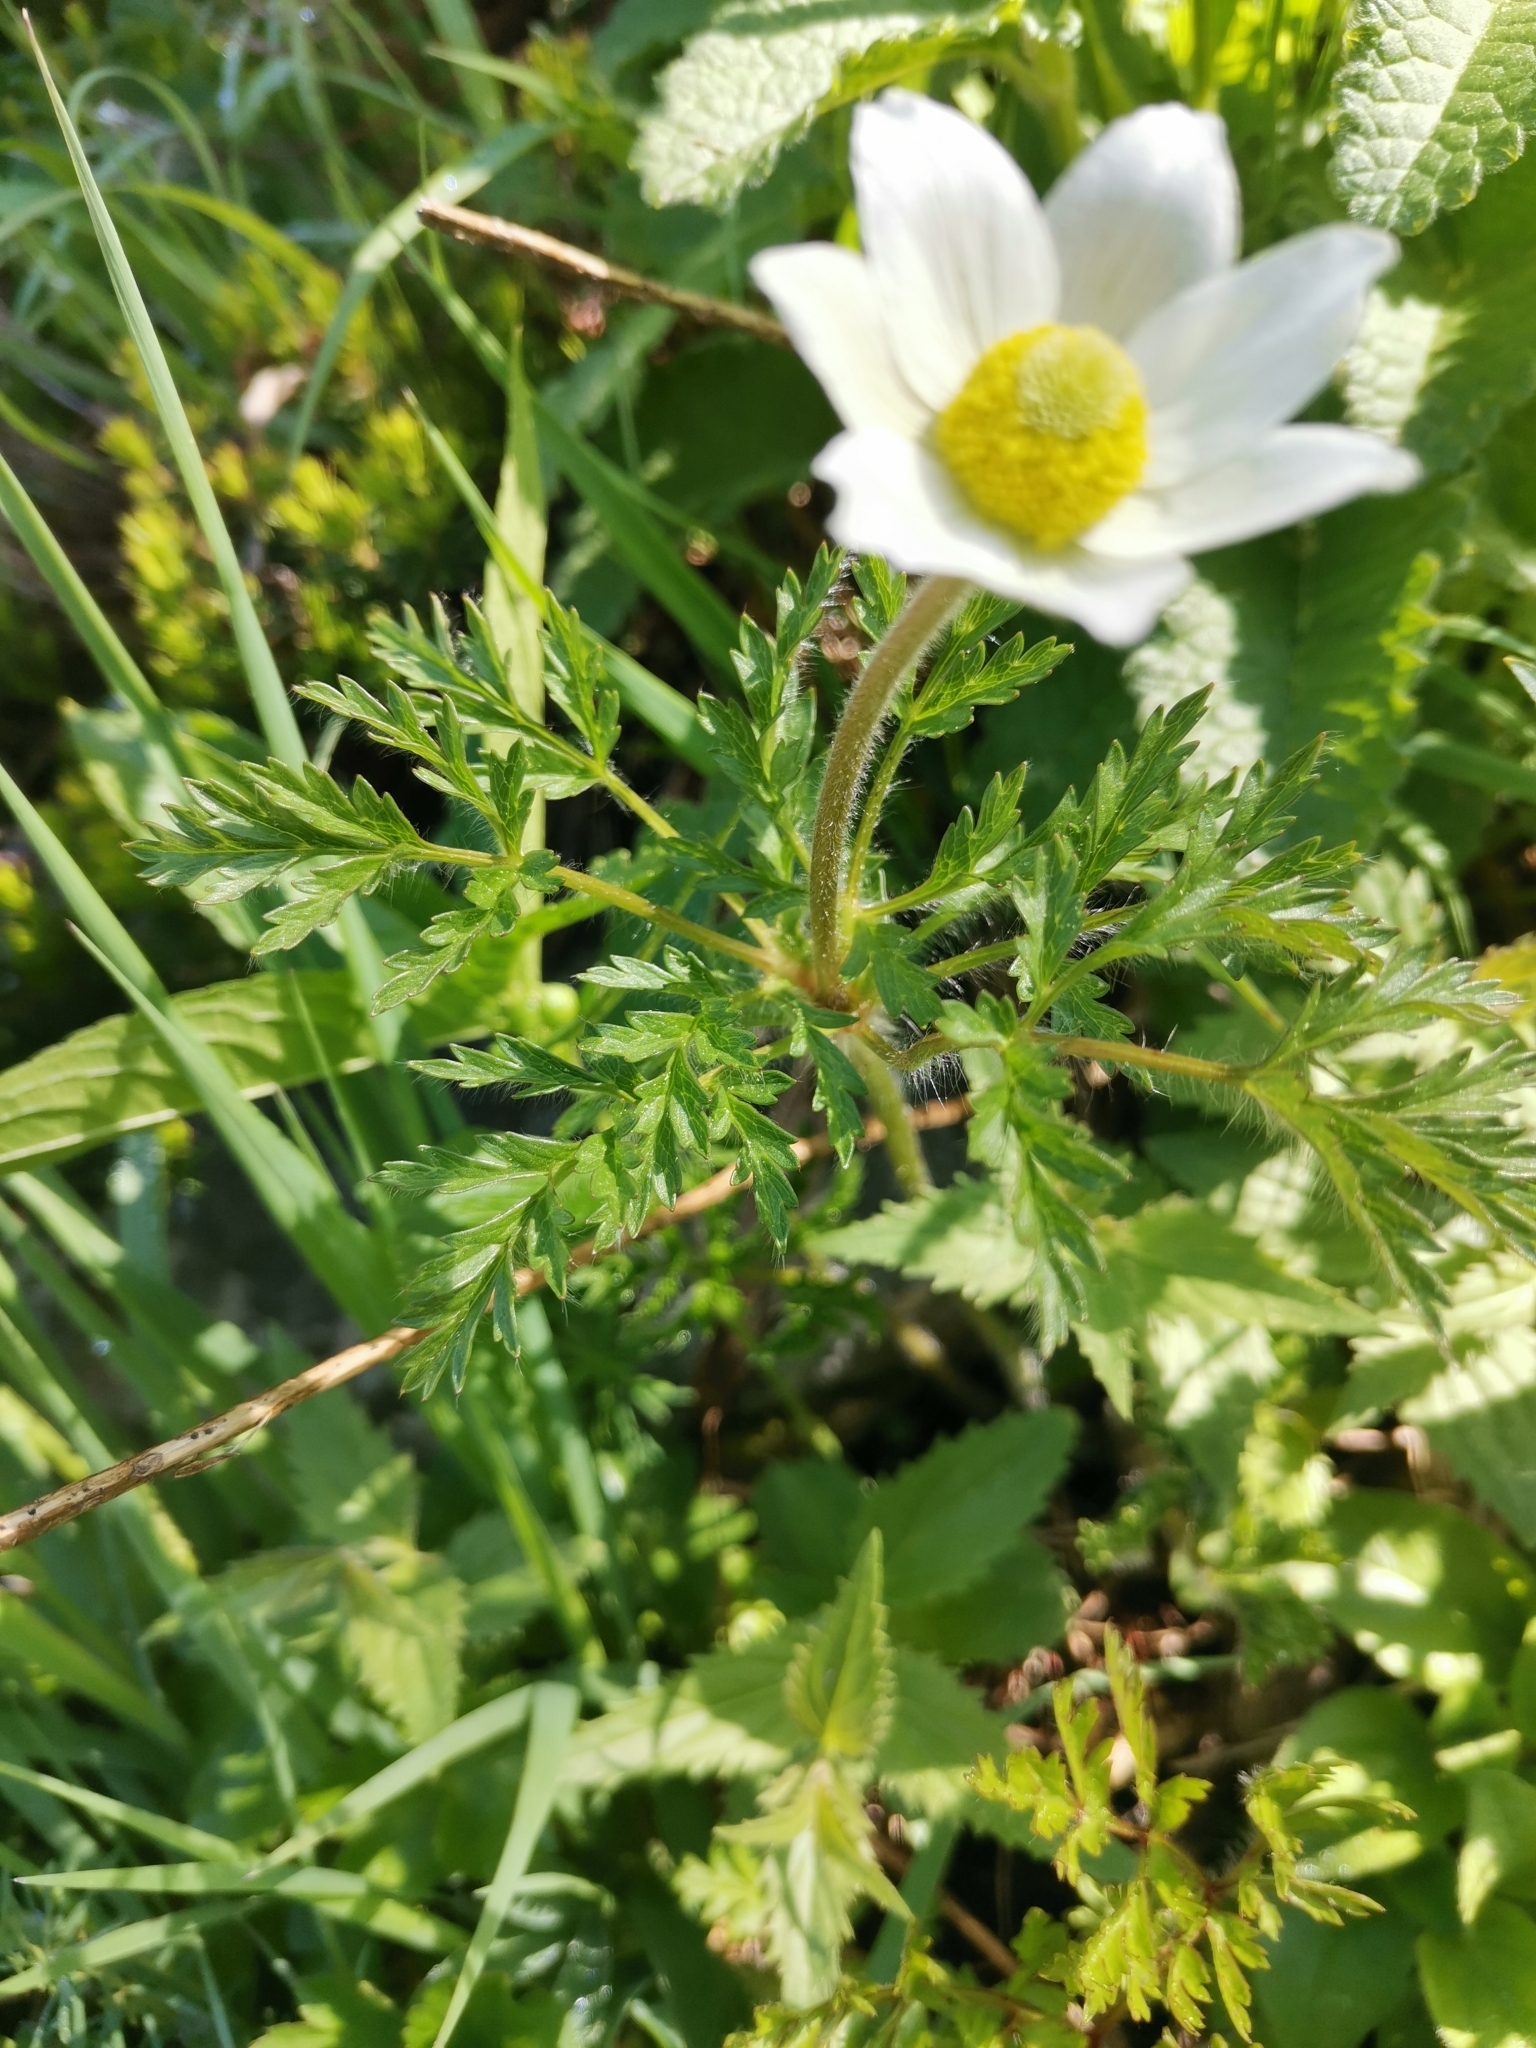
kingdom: Plantae
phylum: Tracheophyta
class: Magnoliopsida
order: Ranunculales
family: Ranunculaceae
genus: Pulsatilla
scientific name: Pulsatilla alpina
